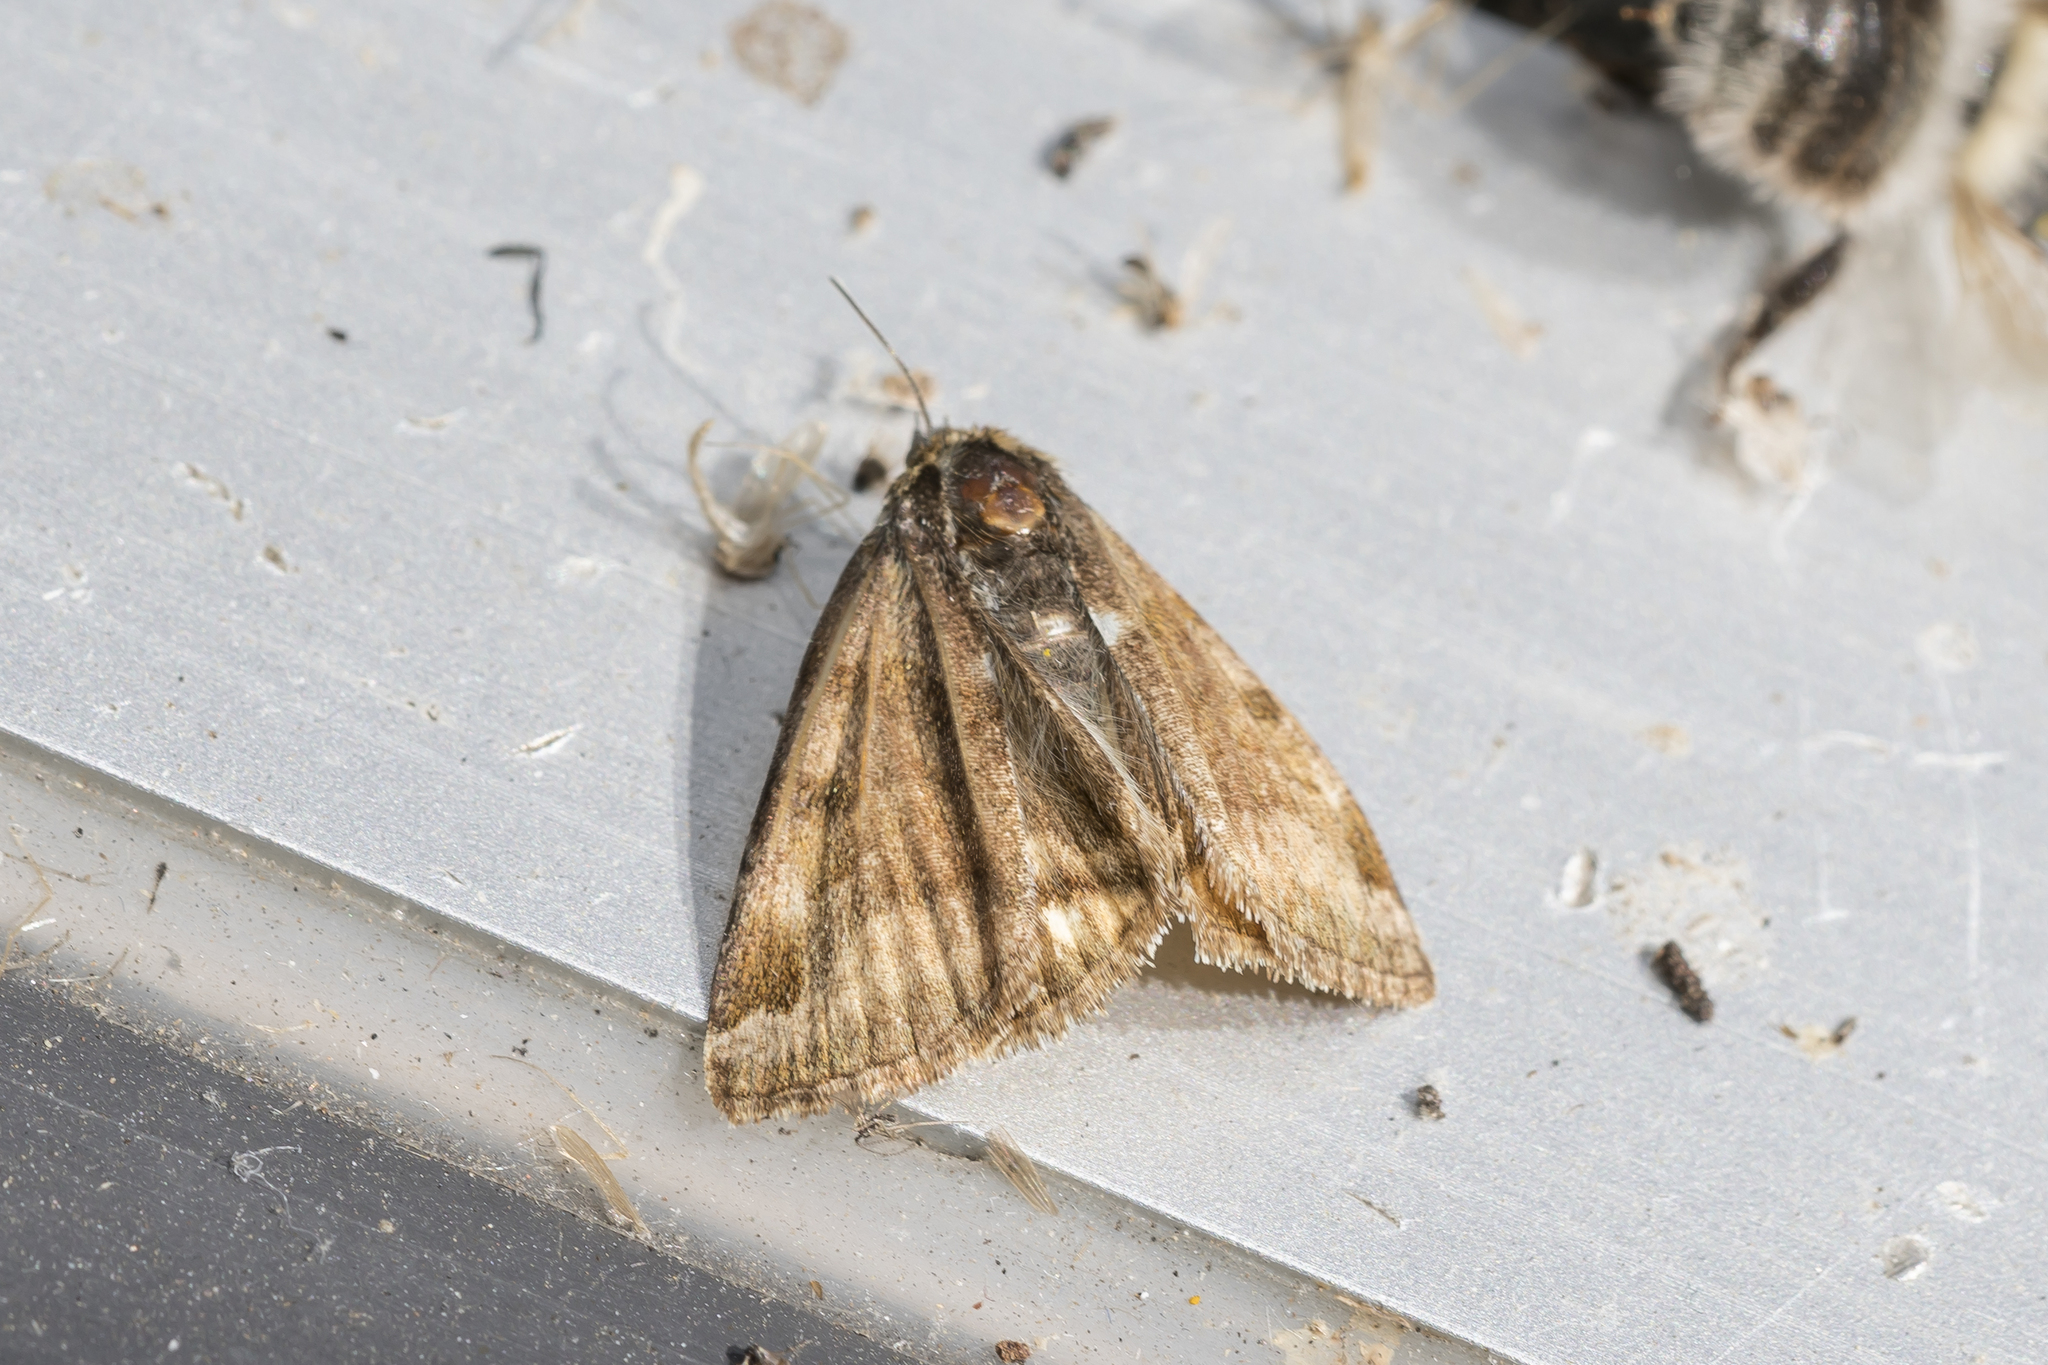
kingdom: Animalia
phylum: Arthropoda
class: Insecta
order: Lepidoptera
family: Erebidae
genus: Euclidia
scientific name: Euclidia glyphica
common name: Burnet companion
